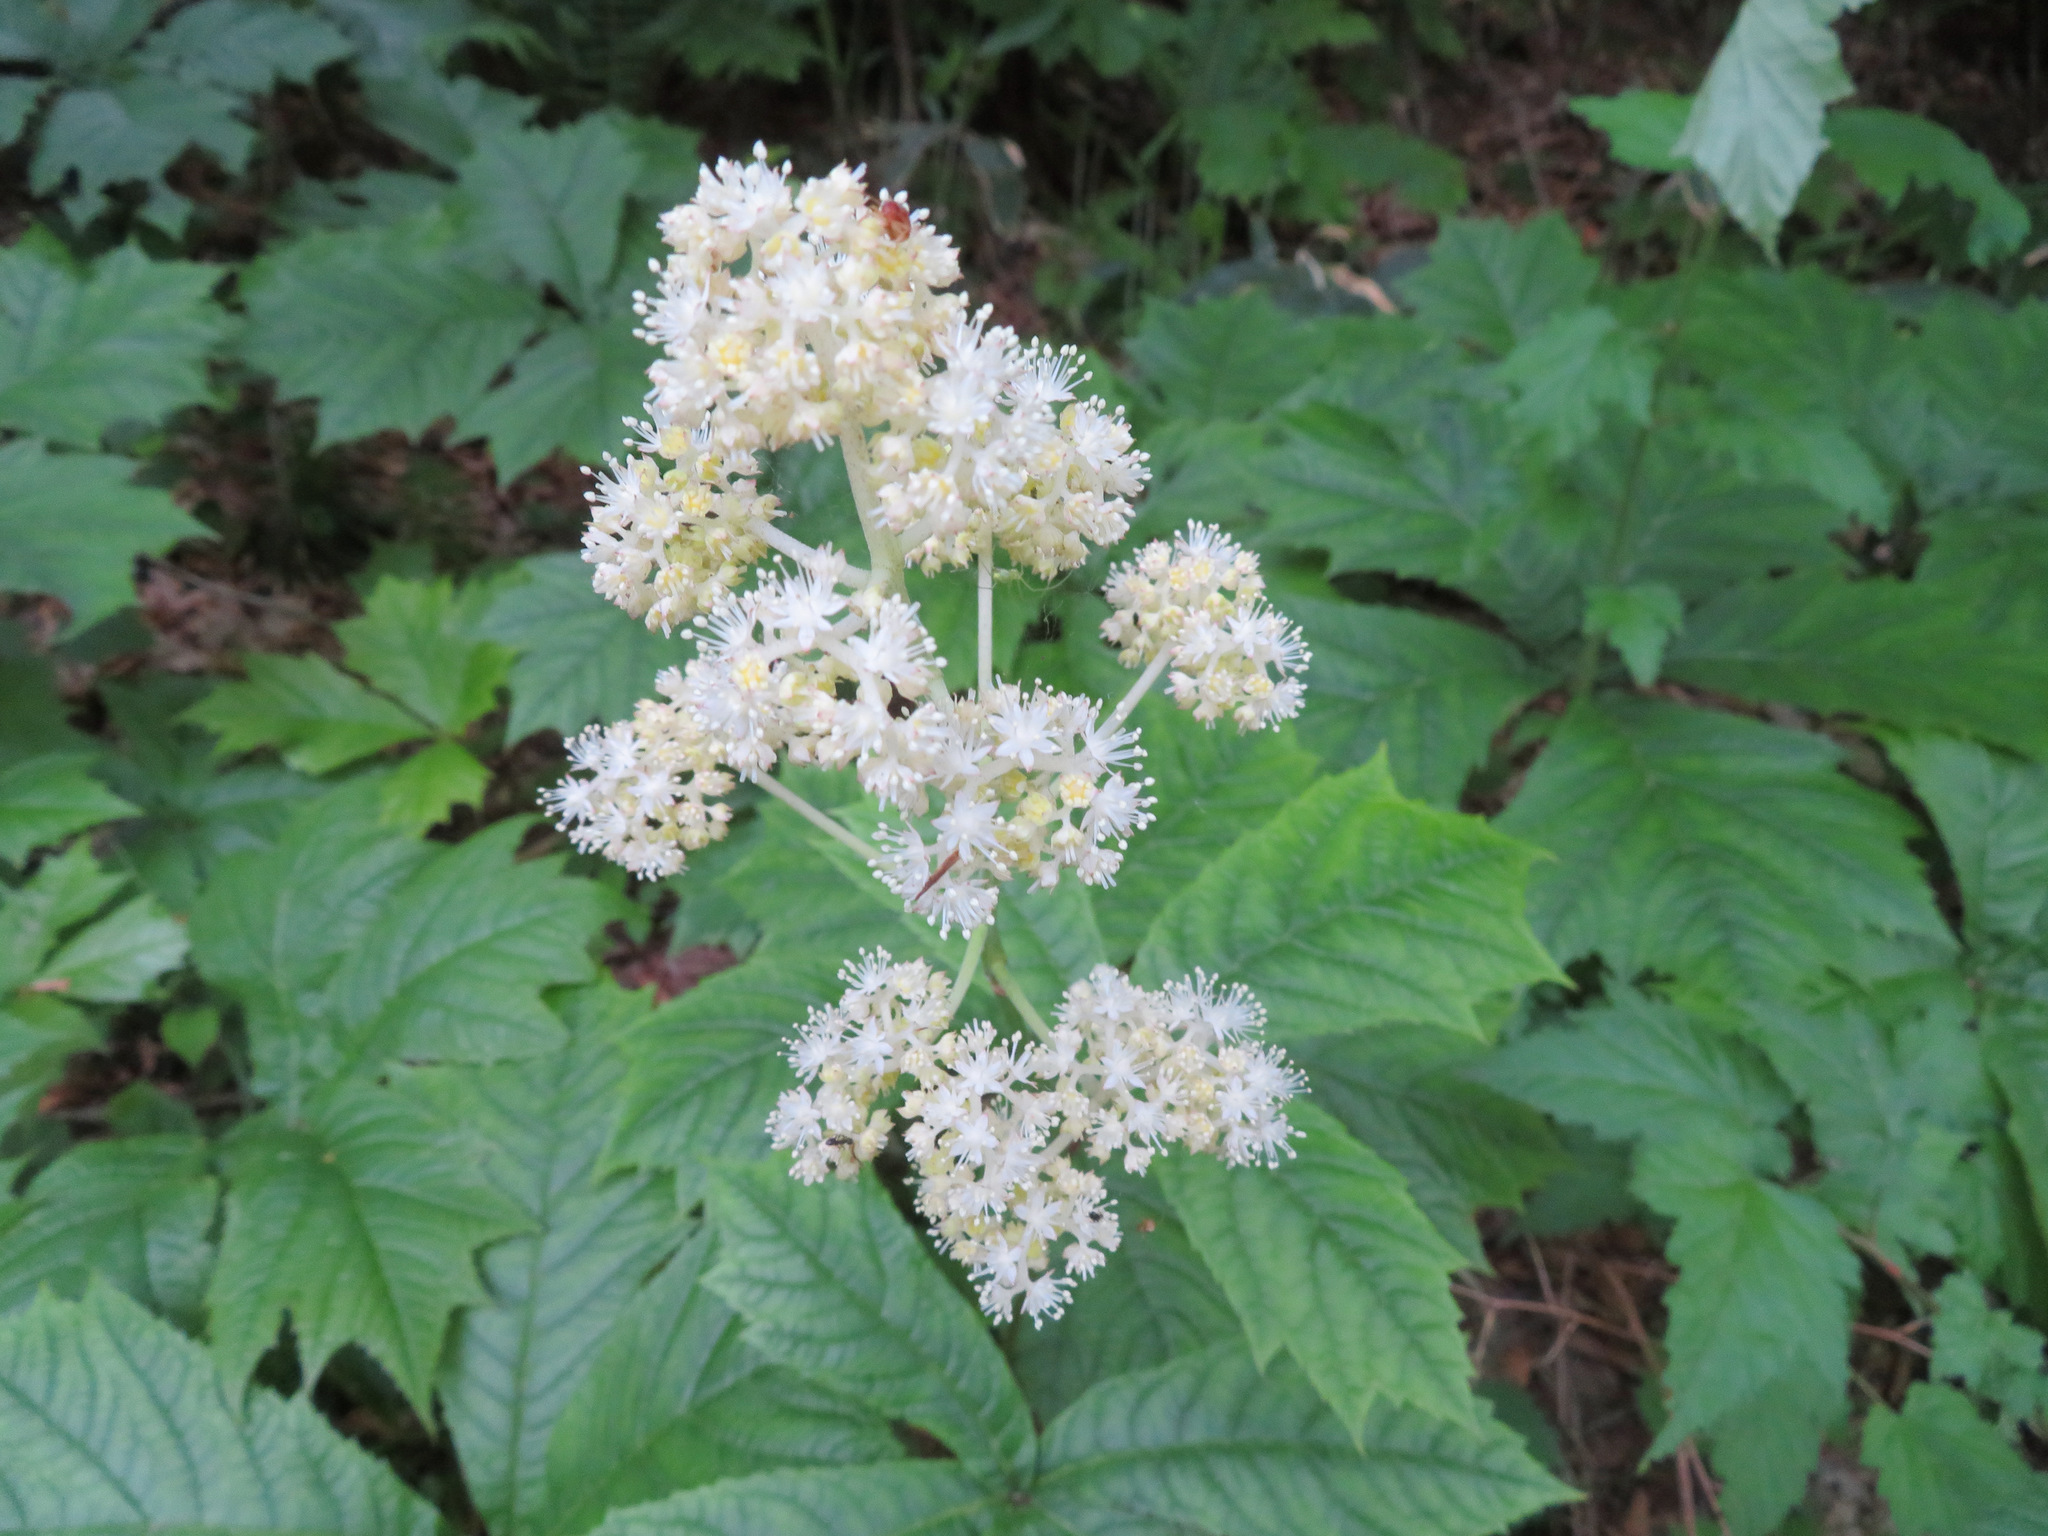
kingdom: Plantae
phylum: Tracheophyta
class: Magnoliopsida
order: Saxifragales
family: Saxifragaceae
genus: Rodgersia
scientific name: Rodgersia podophylla
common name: Rodgersia
